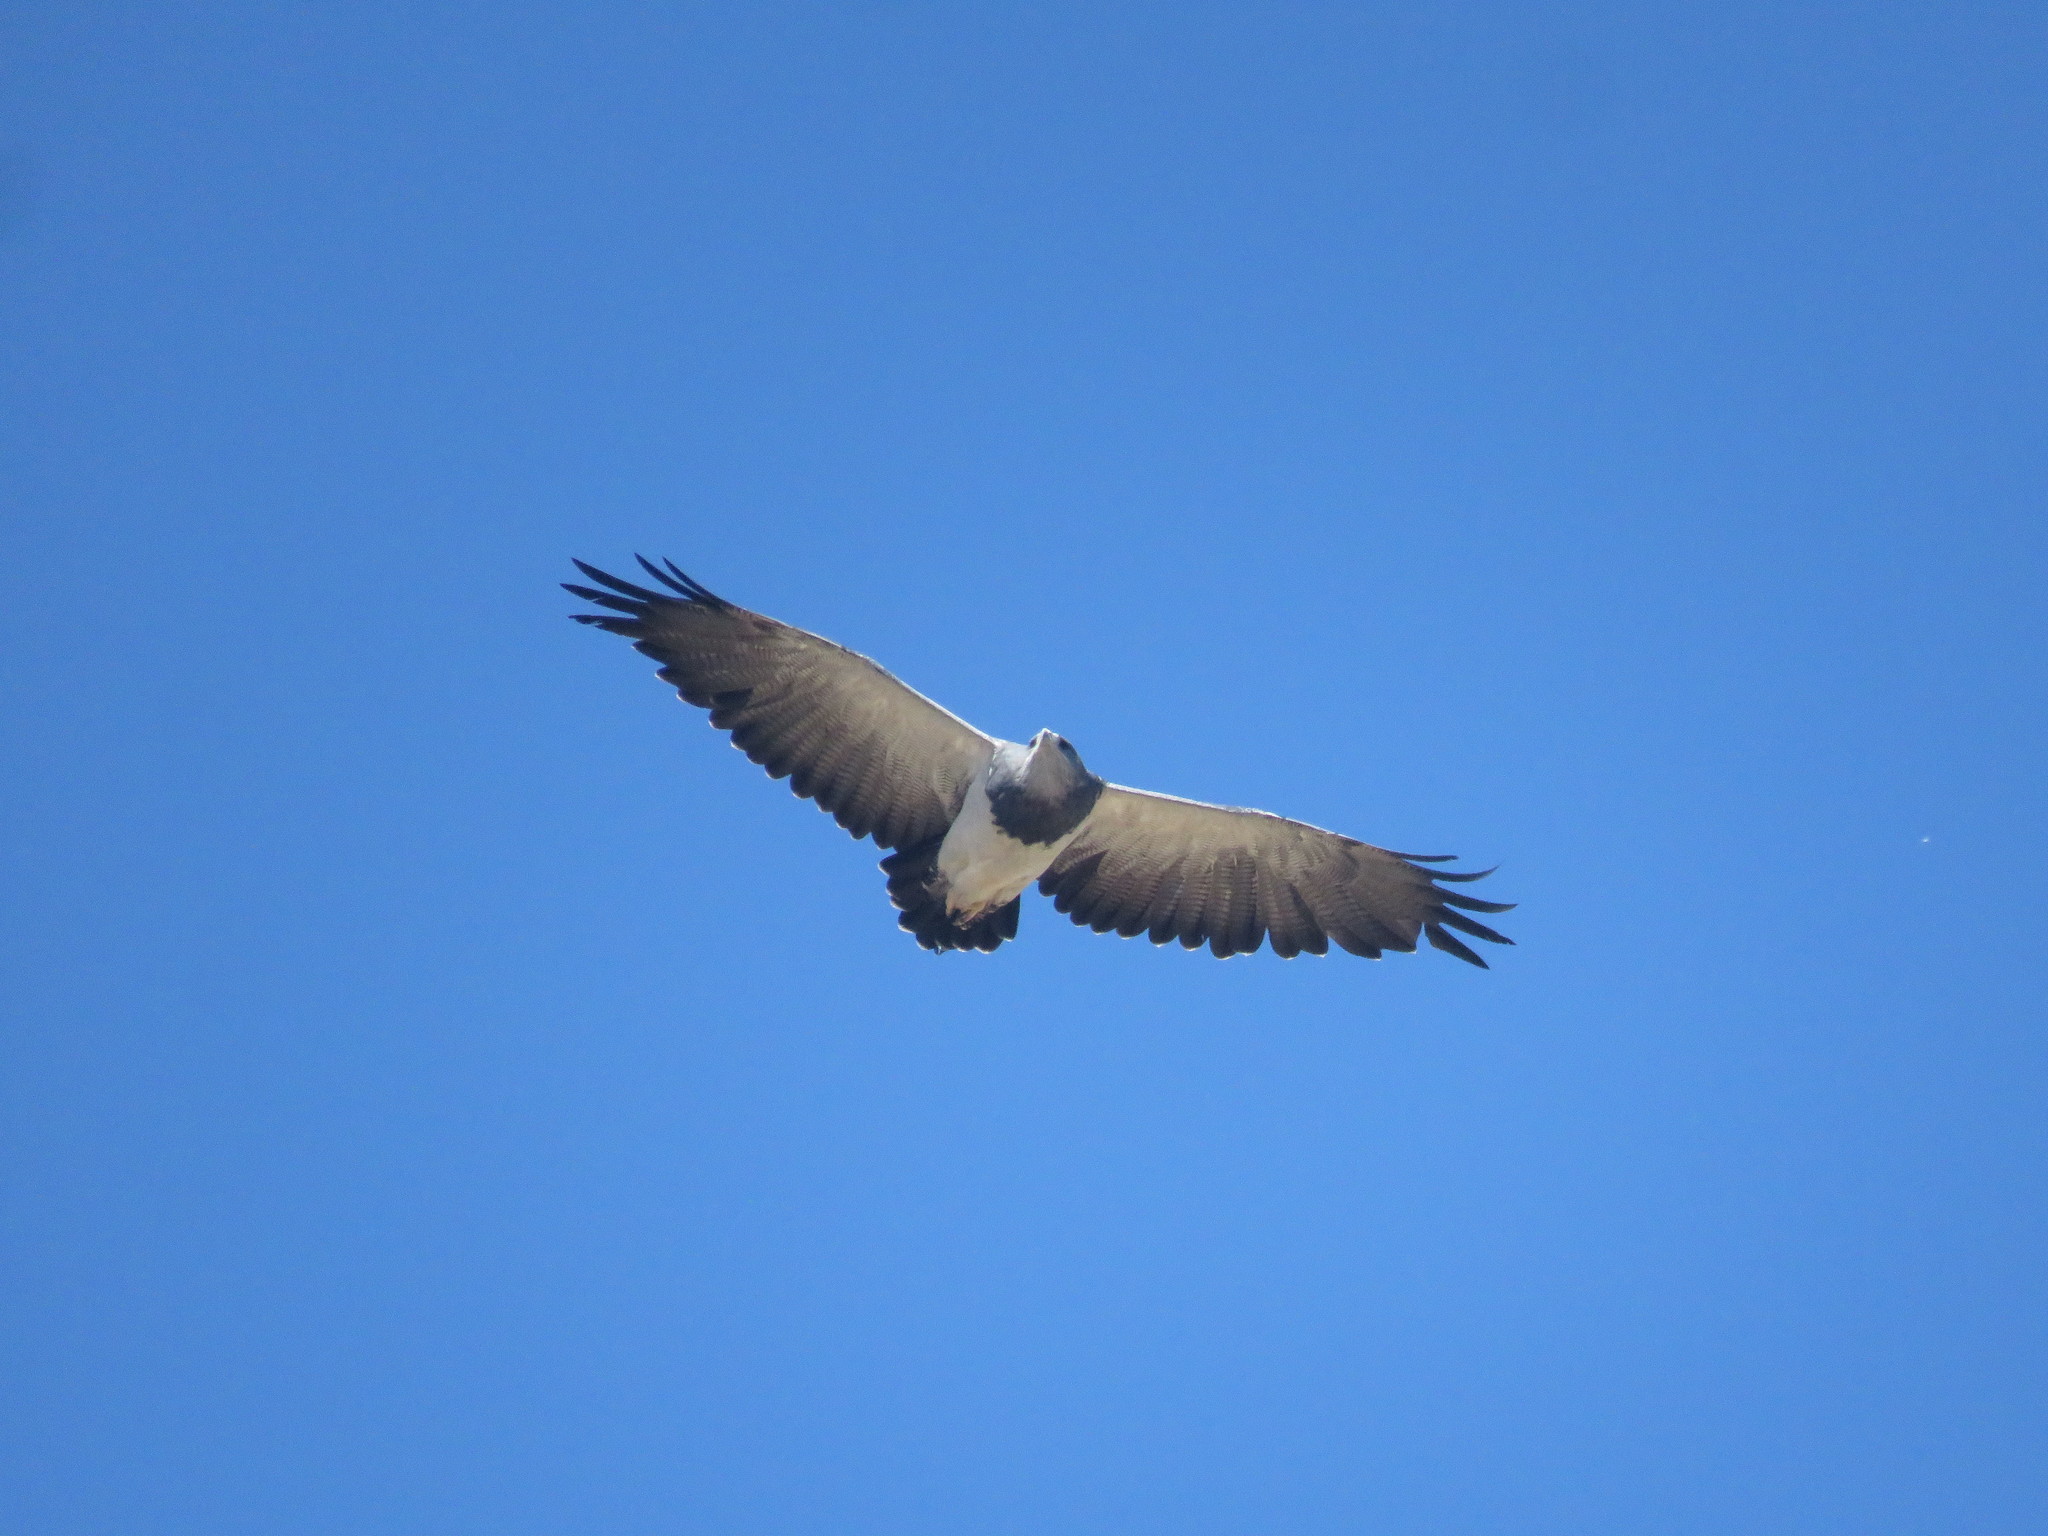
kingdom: Animalia
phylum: Chordata
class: Aves
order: Accipitriformes
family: Accipitridae
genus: Geranoaetus
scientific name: Geranoaetus melanoleucus
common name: Black-chested buzzard-eagle
